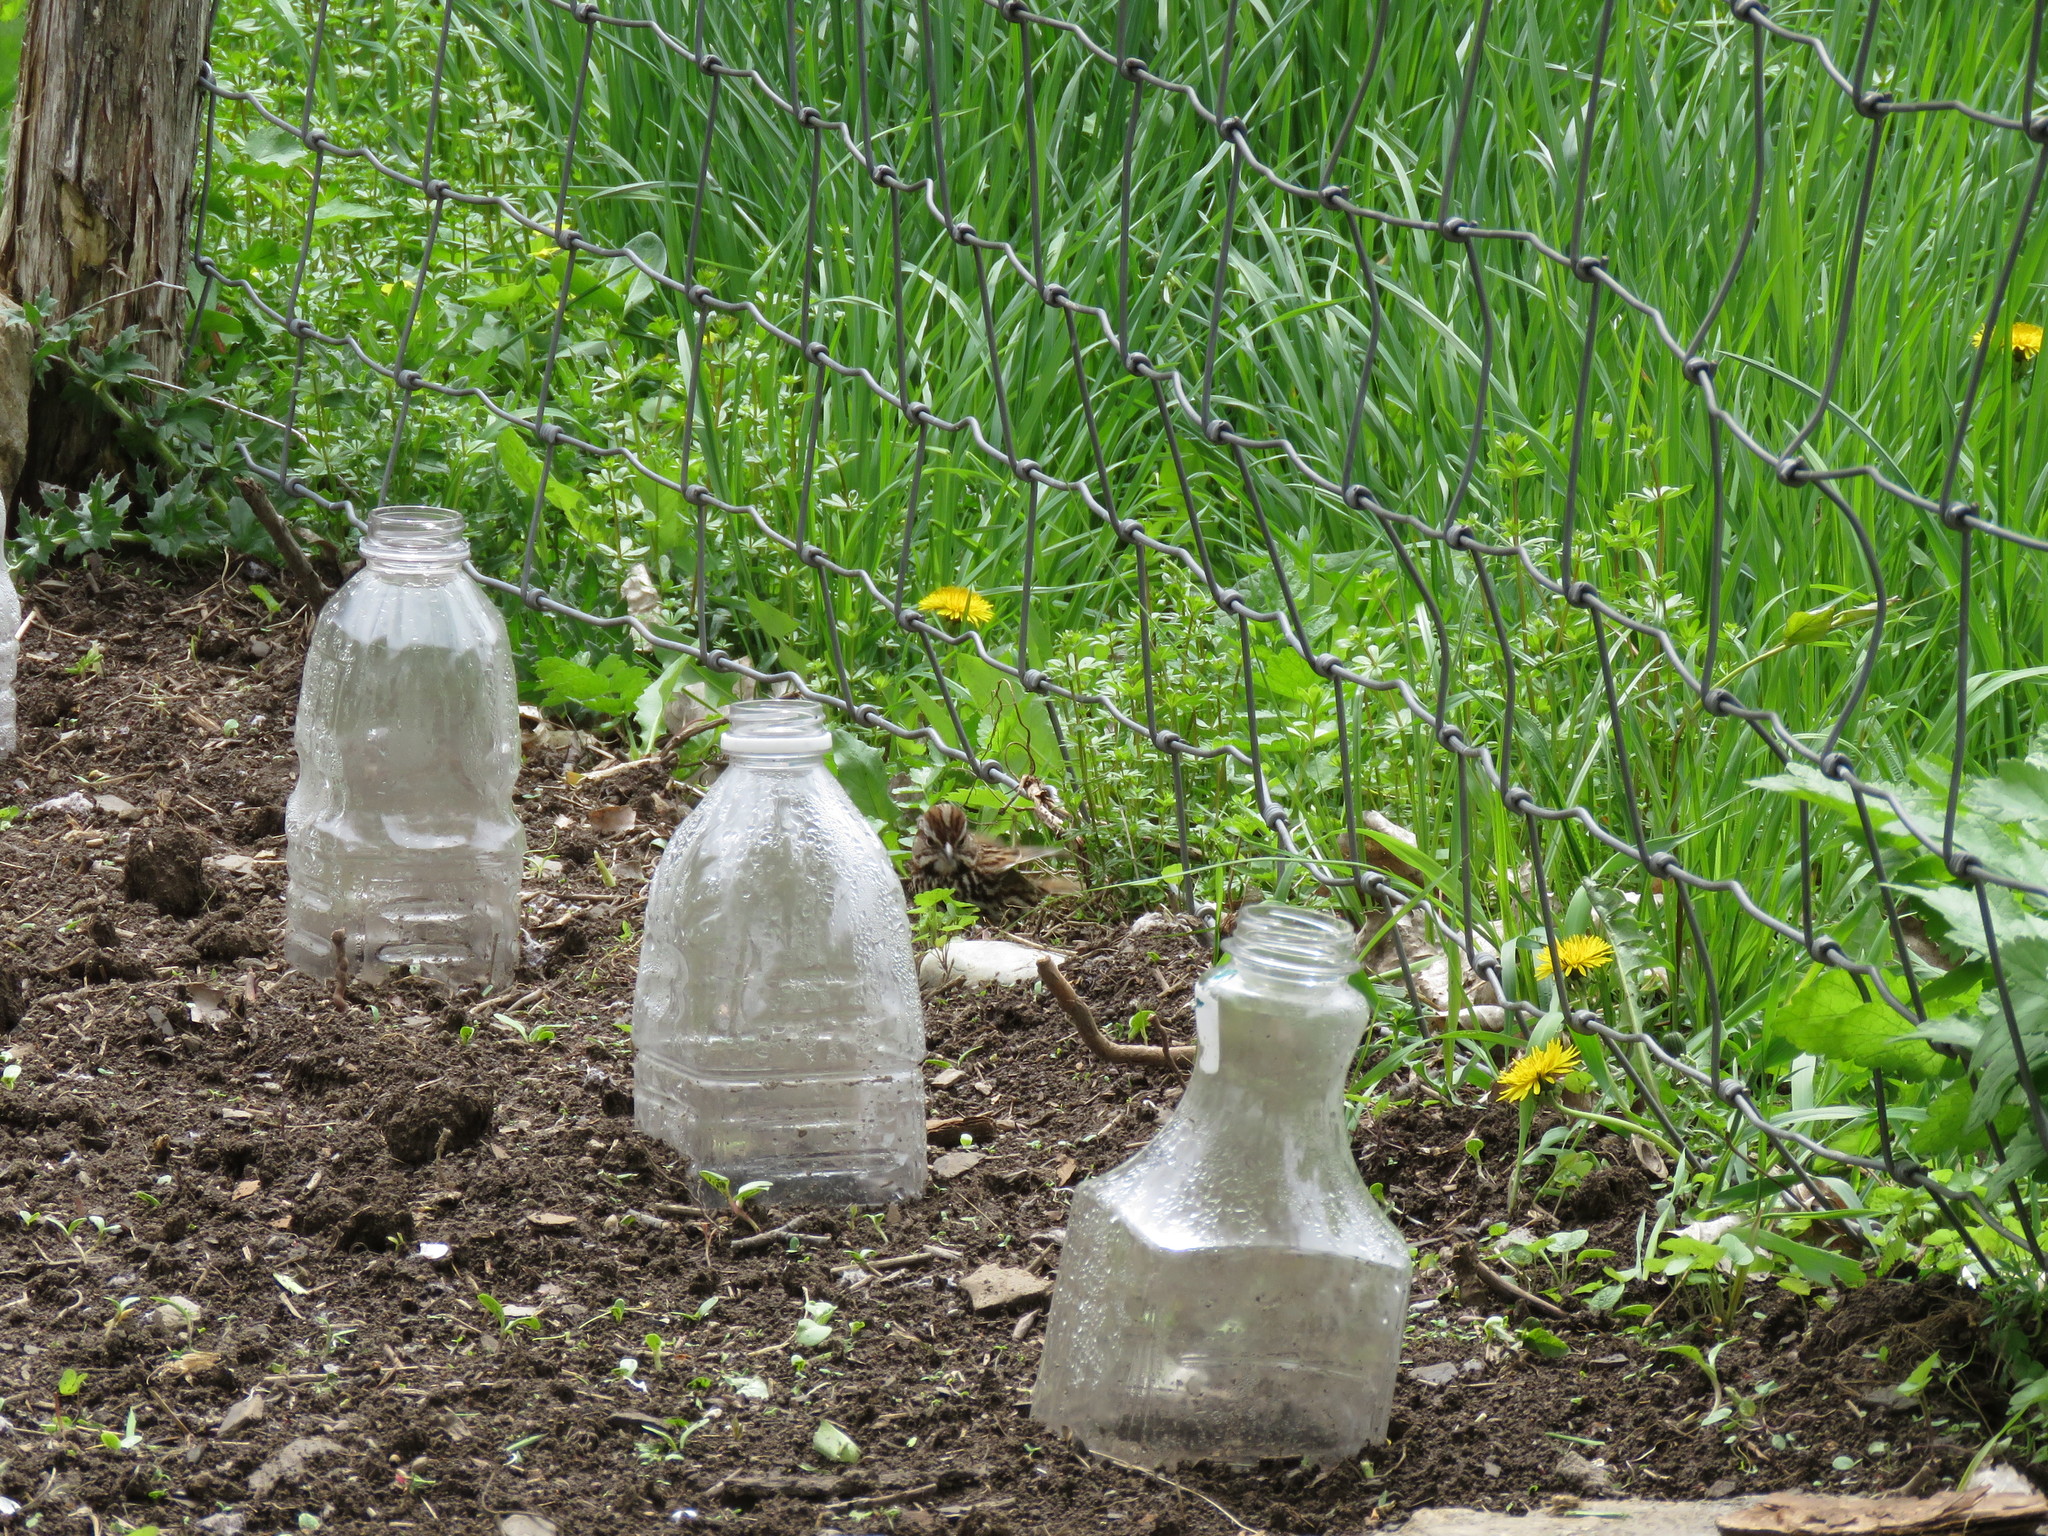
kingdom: Animalia
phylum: Chordata
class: Aves
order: Passeriformes
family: Passerellidae
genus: Melospiza
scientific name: Melospiza melodia
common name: Song sparrow
